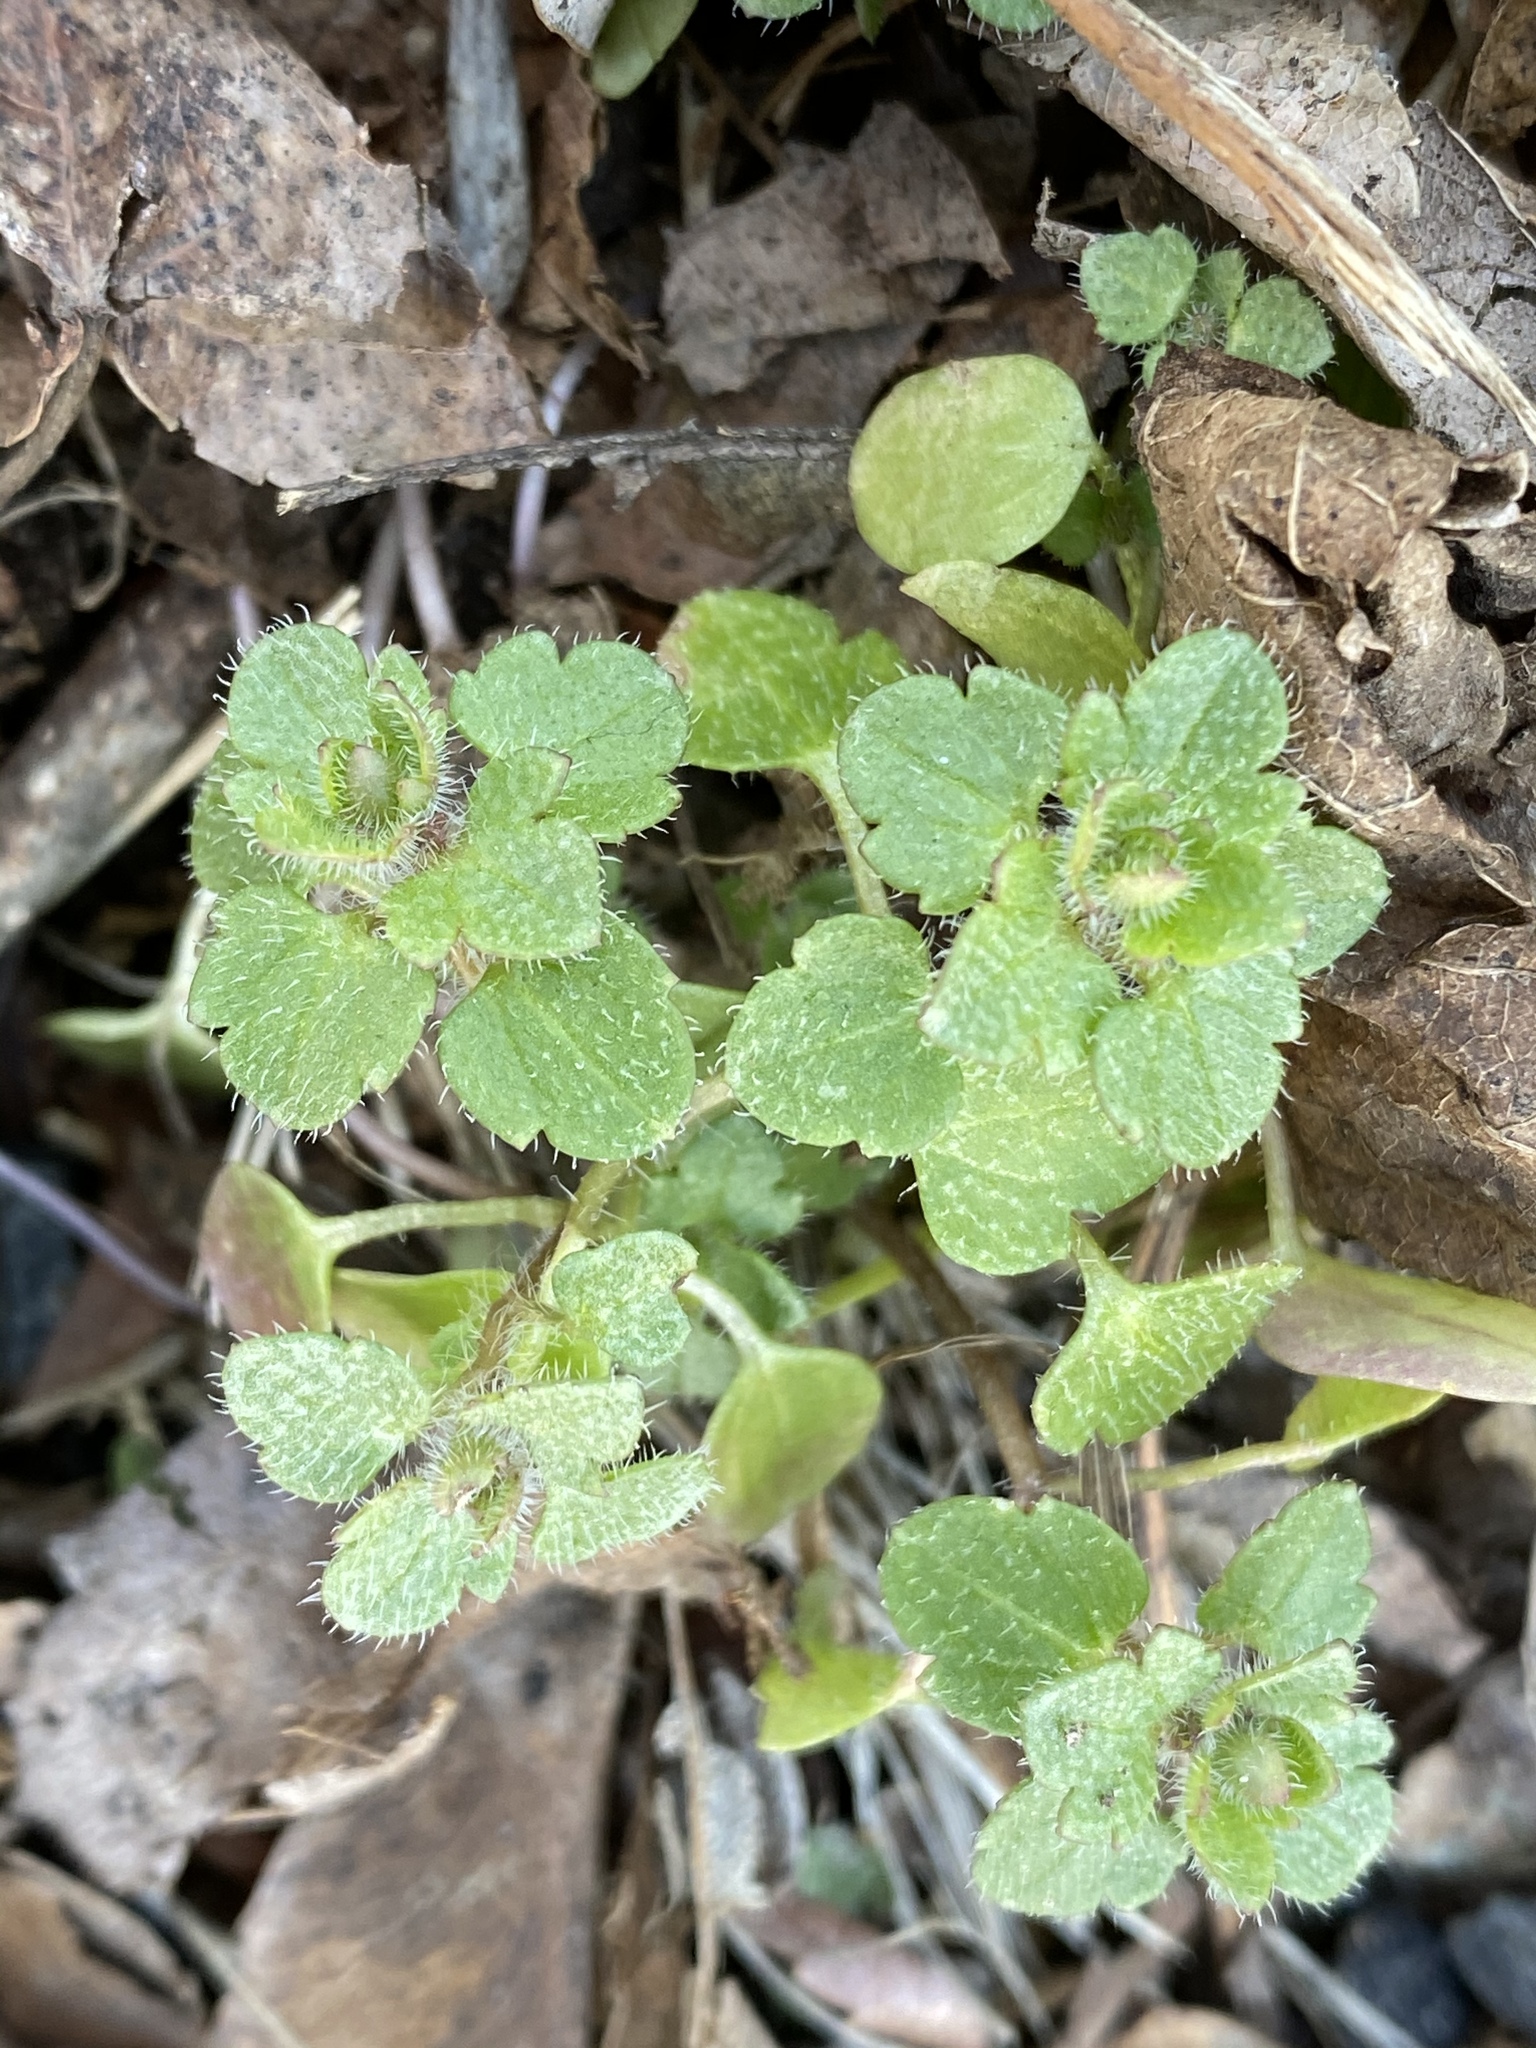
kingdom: Plantae
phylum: Tracheophyta
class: Magnoliopsida
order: Lamiales
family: Plantaginaceae
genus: Veronica
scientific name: Veronica hederifolia
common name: Ivy-leaved speedwell
